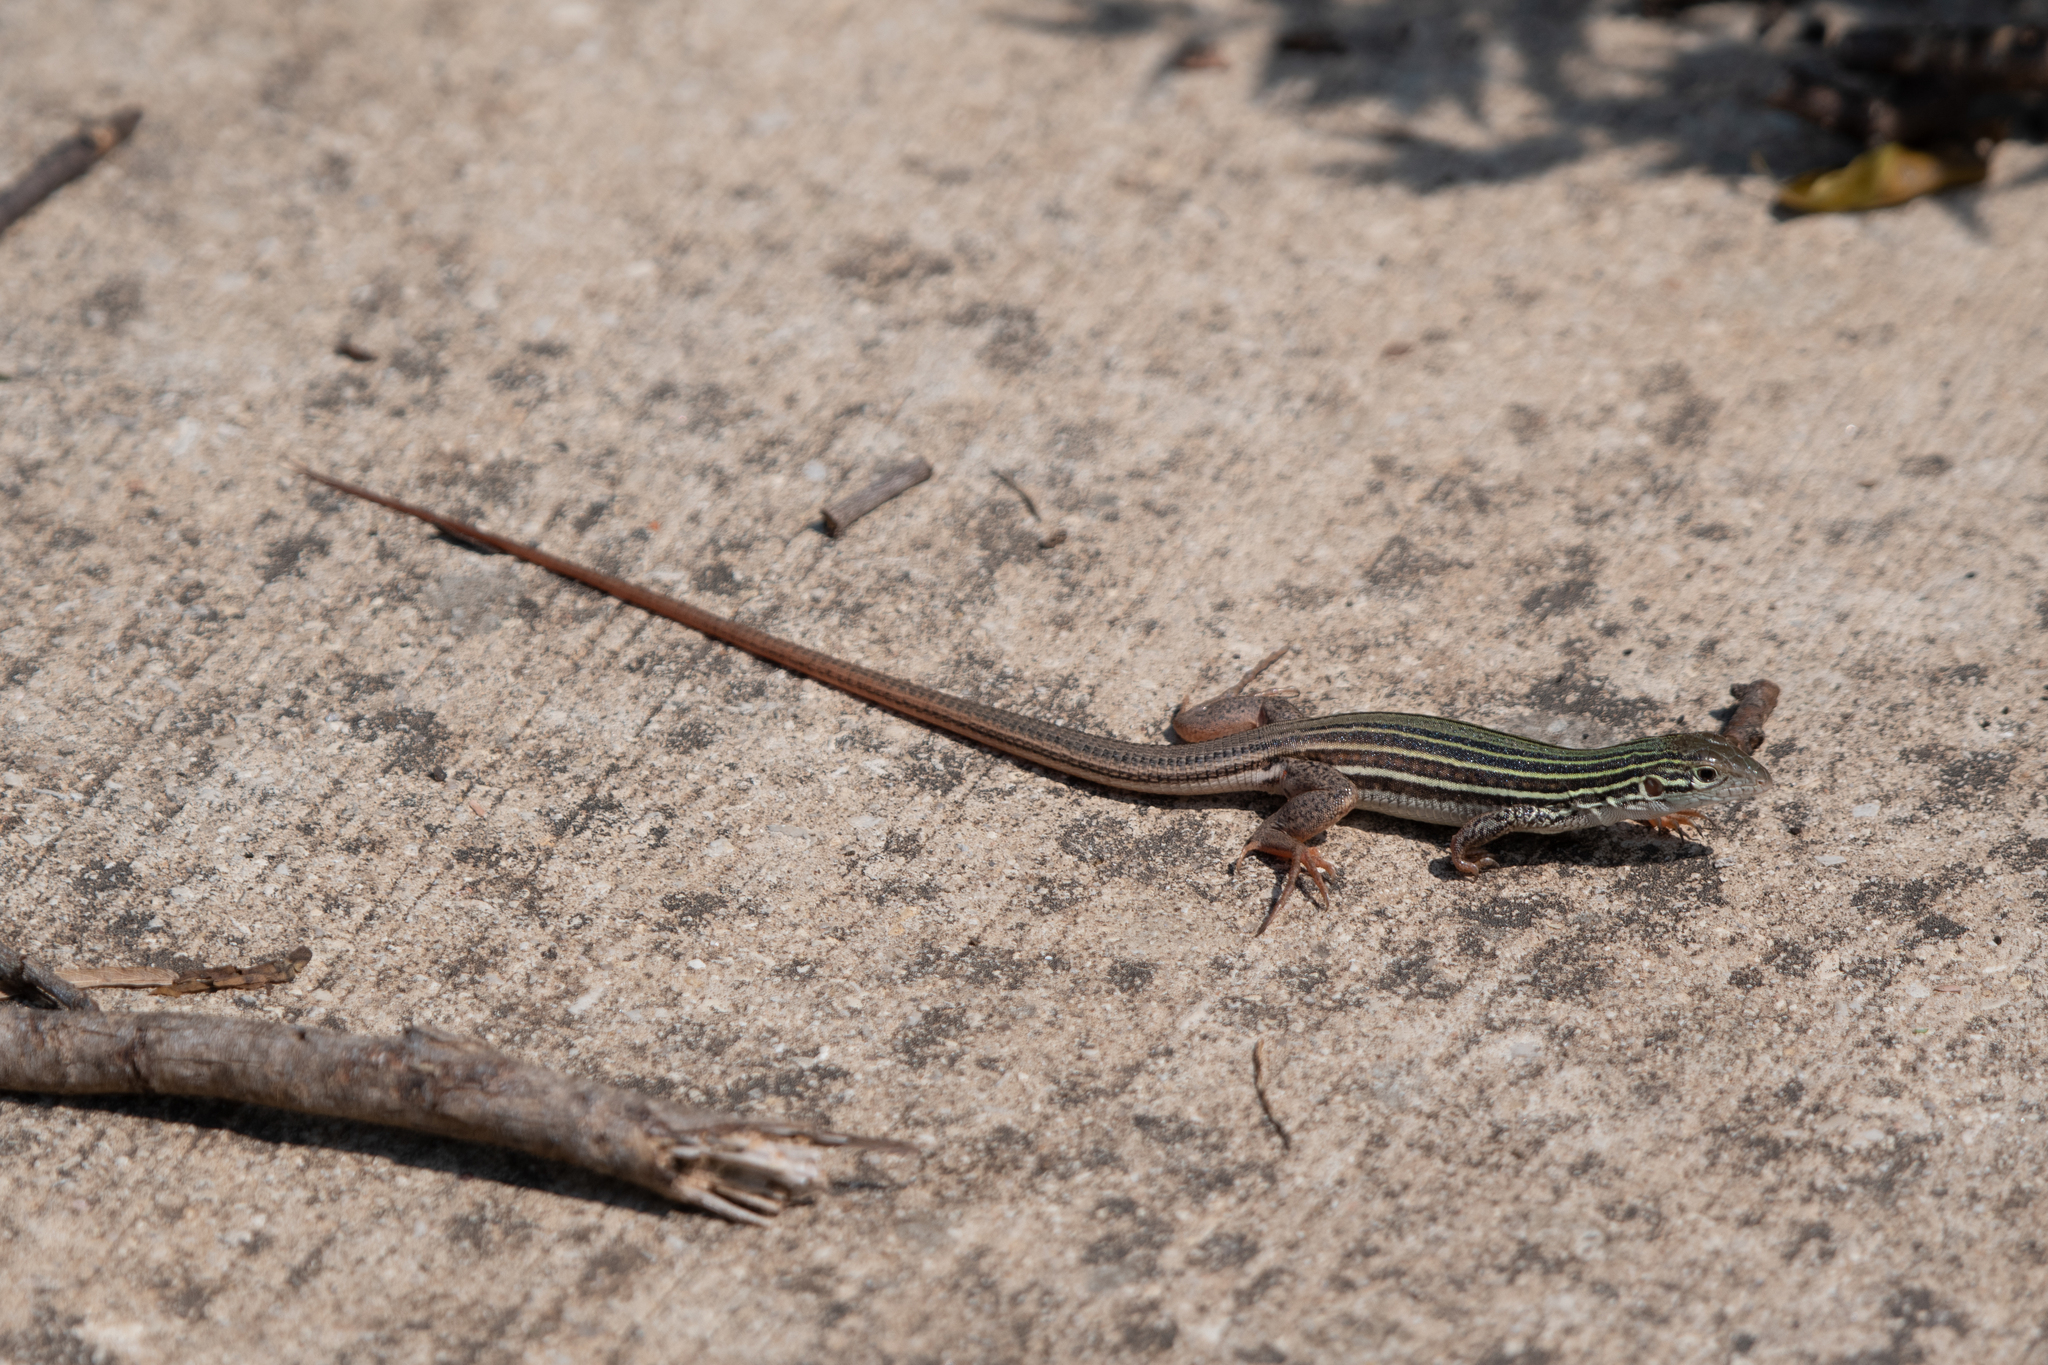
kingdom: Animalia
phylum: Chordata
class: Squamata
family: Teiidae
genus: Aspidoscelis
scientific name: Aspidoscelis gularis
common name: Eastern spotted whiptail
